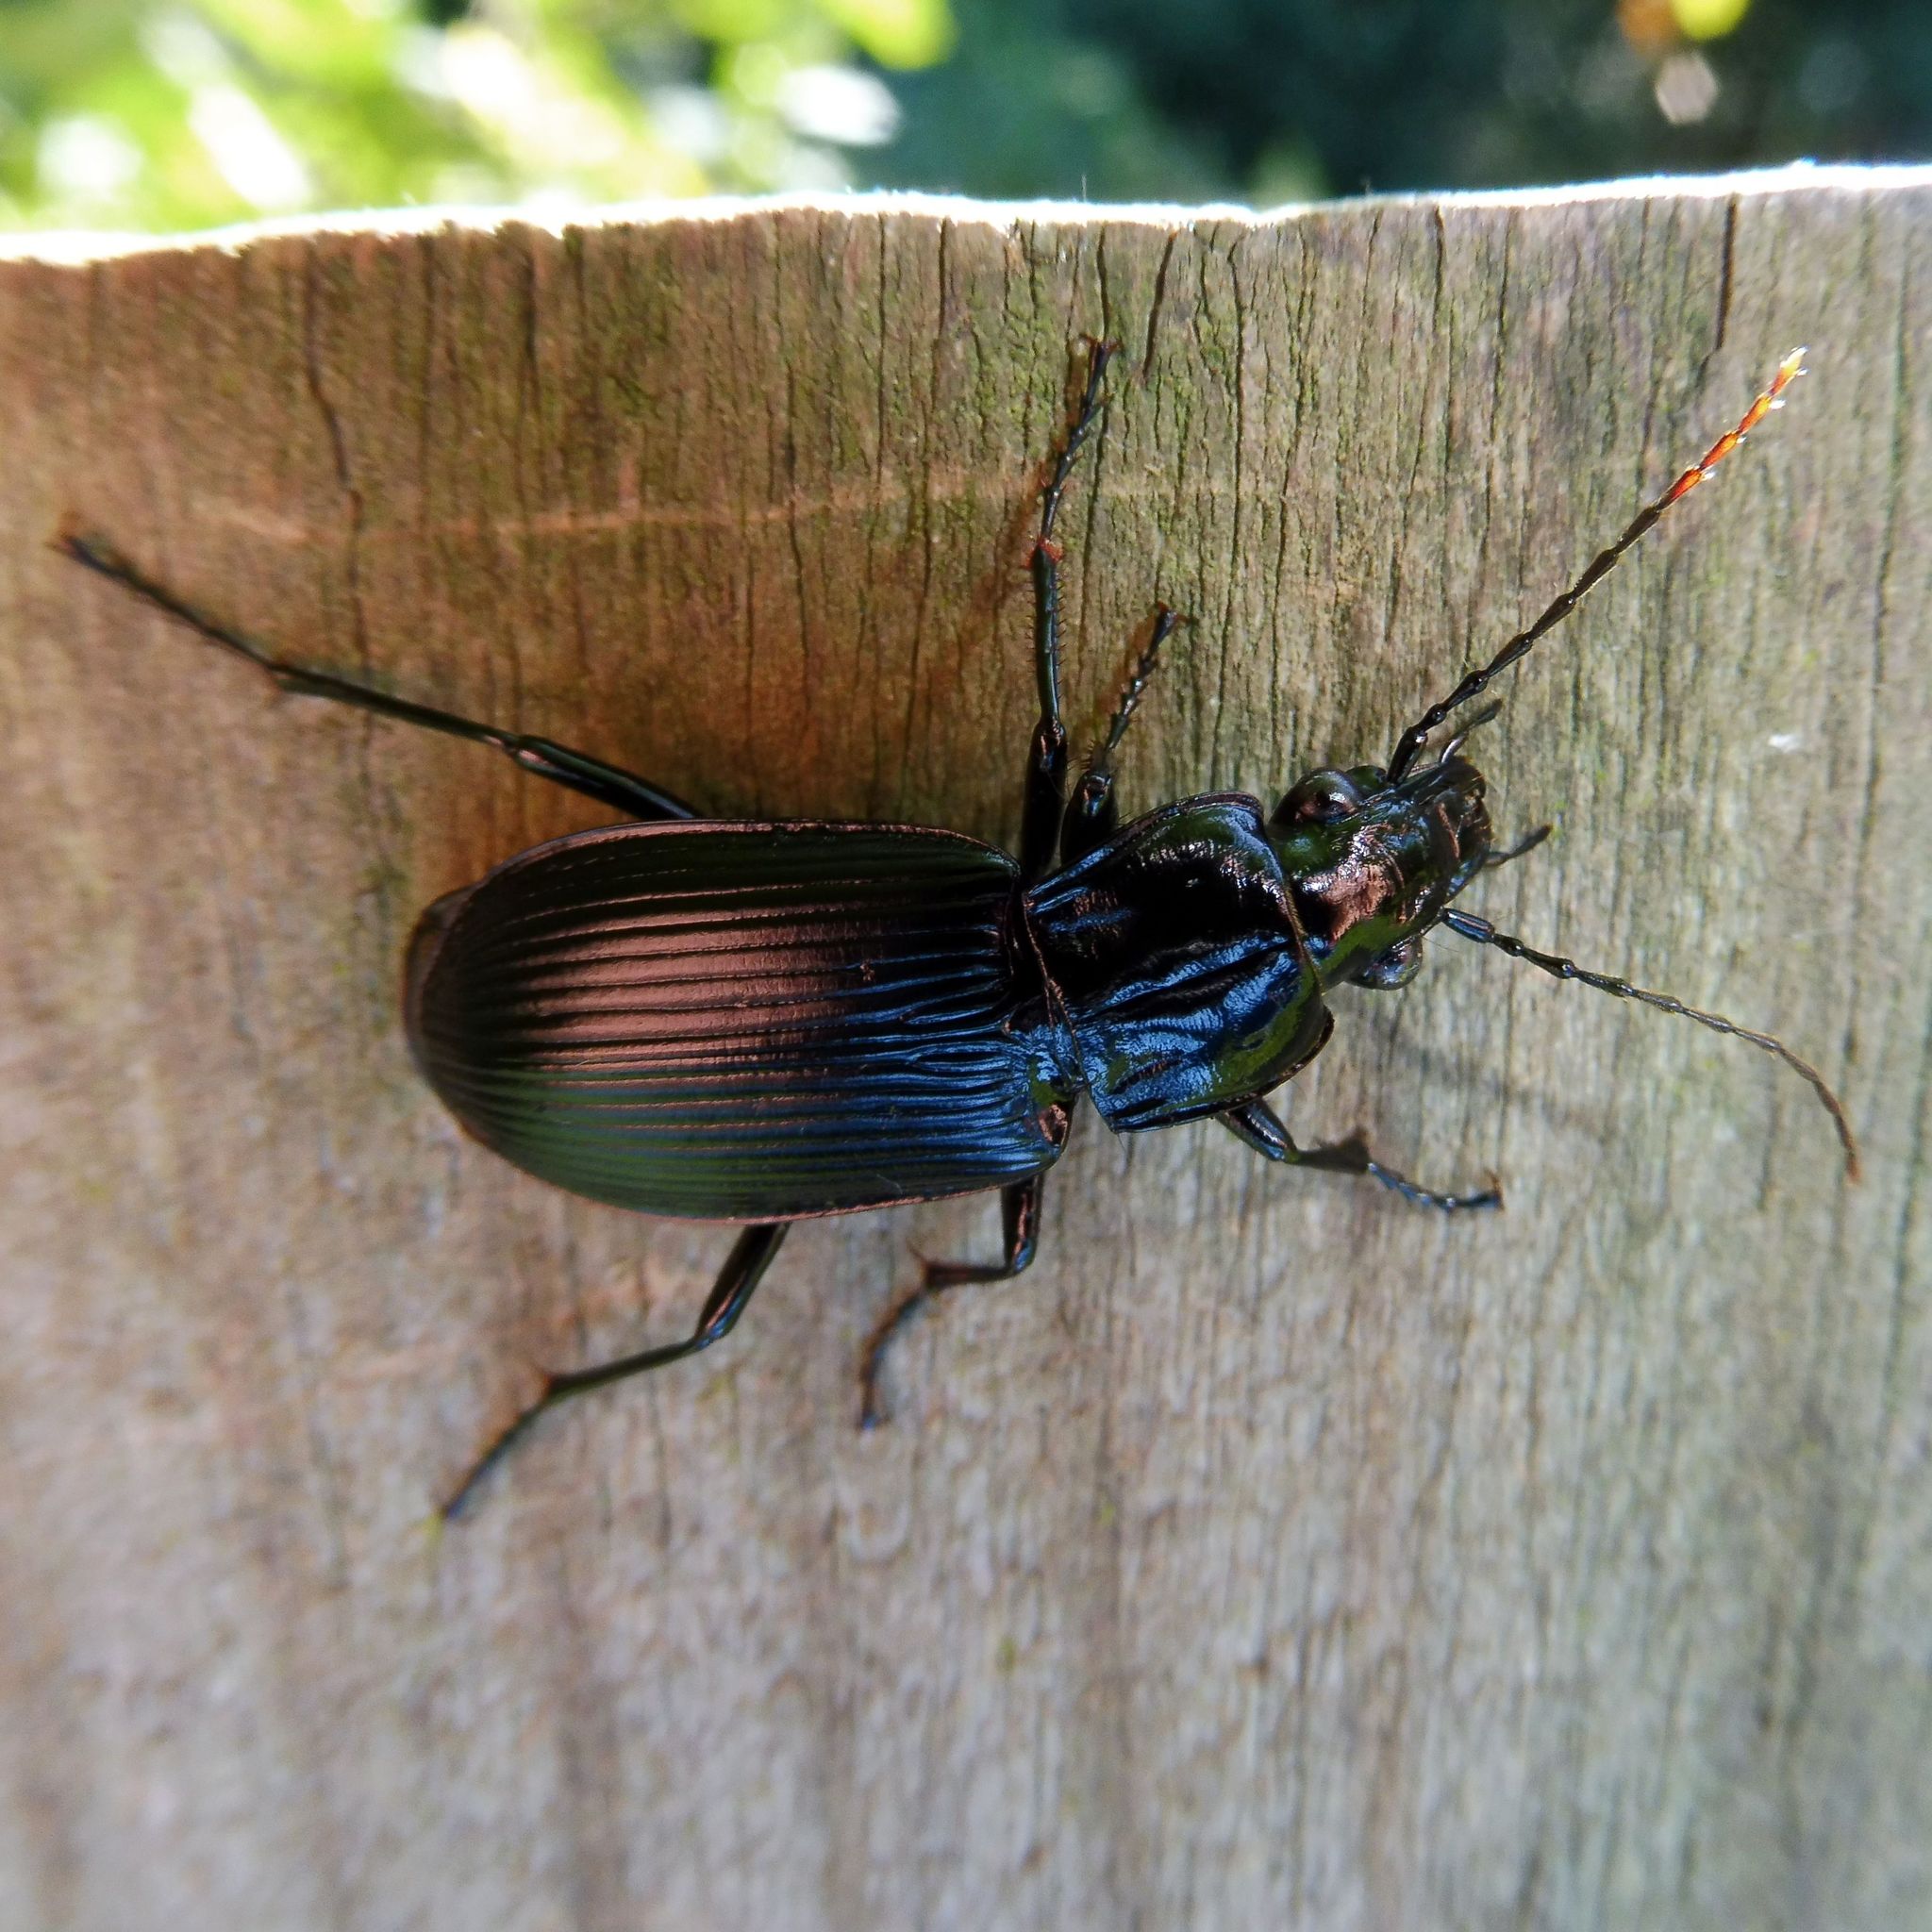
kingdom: Animalia
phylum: Arthropoda
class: Insecta
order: Coleoptera
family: Carabidae
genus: Pterostichus
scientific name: Pterostichus niger
